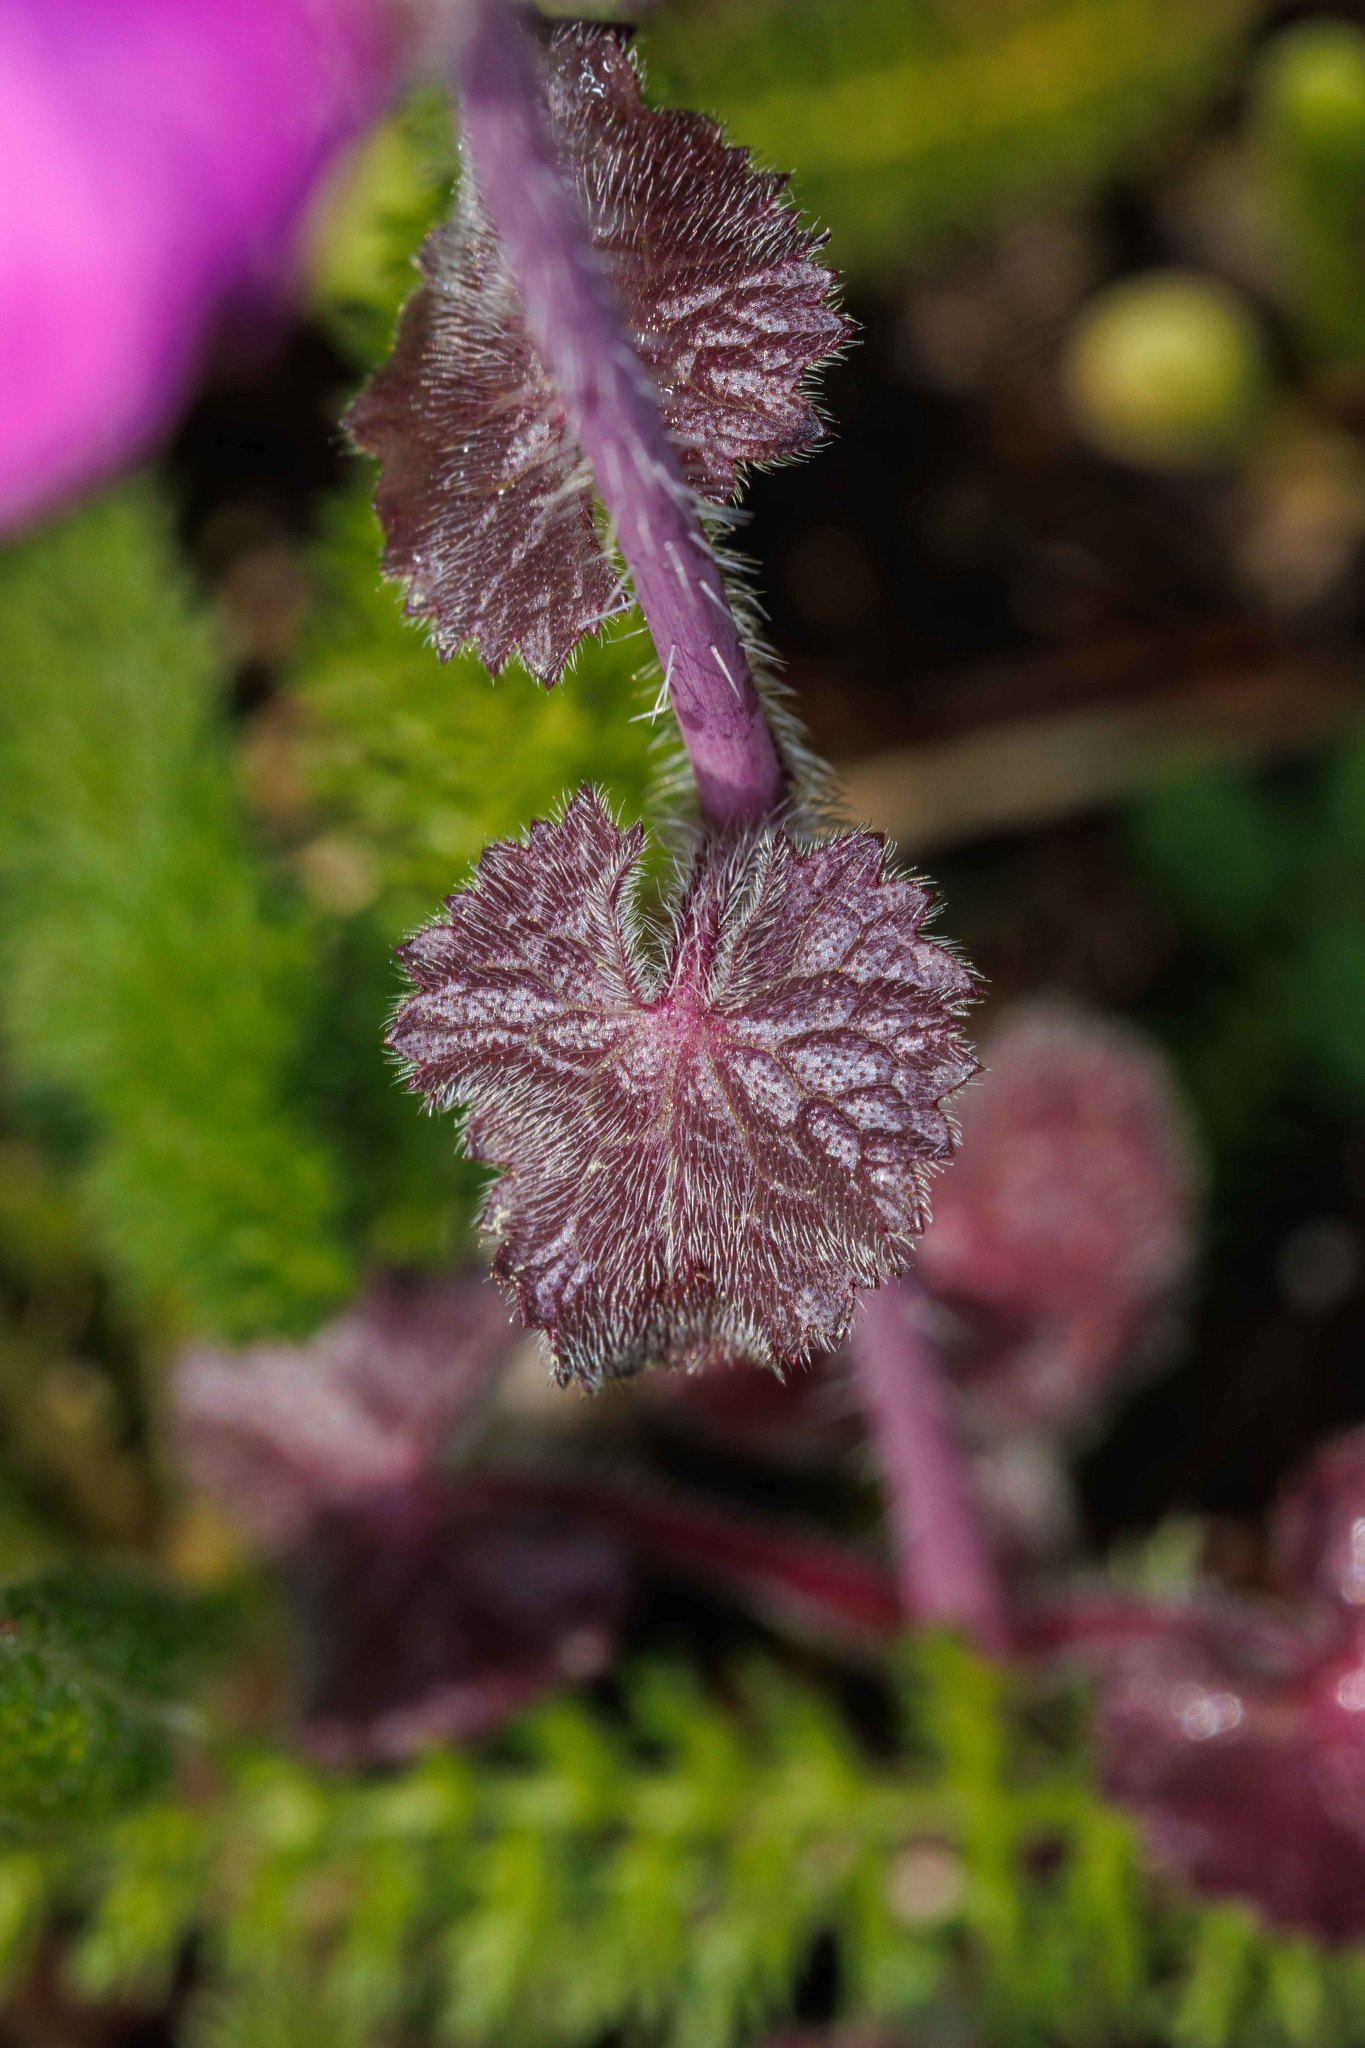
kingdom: Plantae
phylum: Tracheophyta
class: Magnoliopsida
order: Brassicales
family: Brassicaceae
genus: Lunaria
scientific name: Lunaria annua
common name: Honesty
